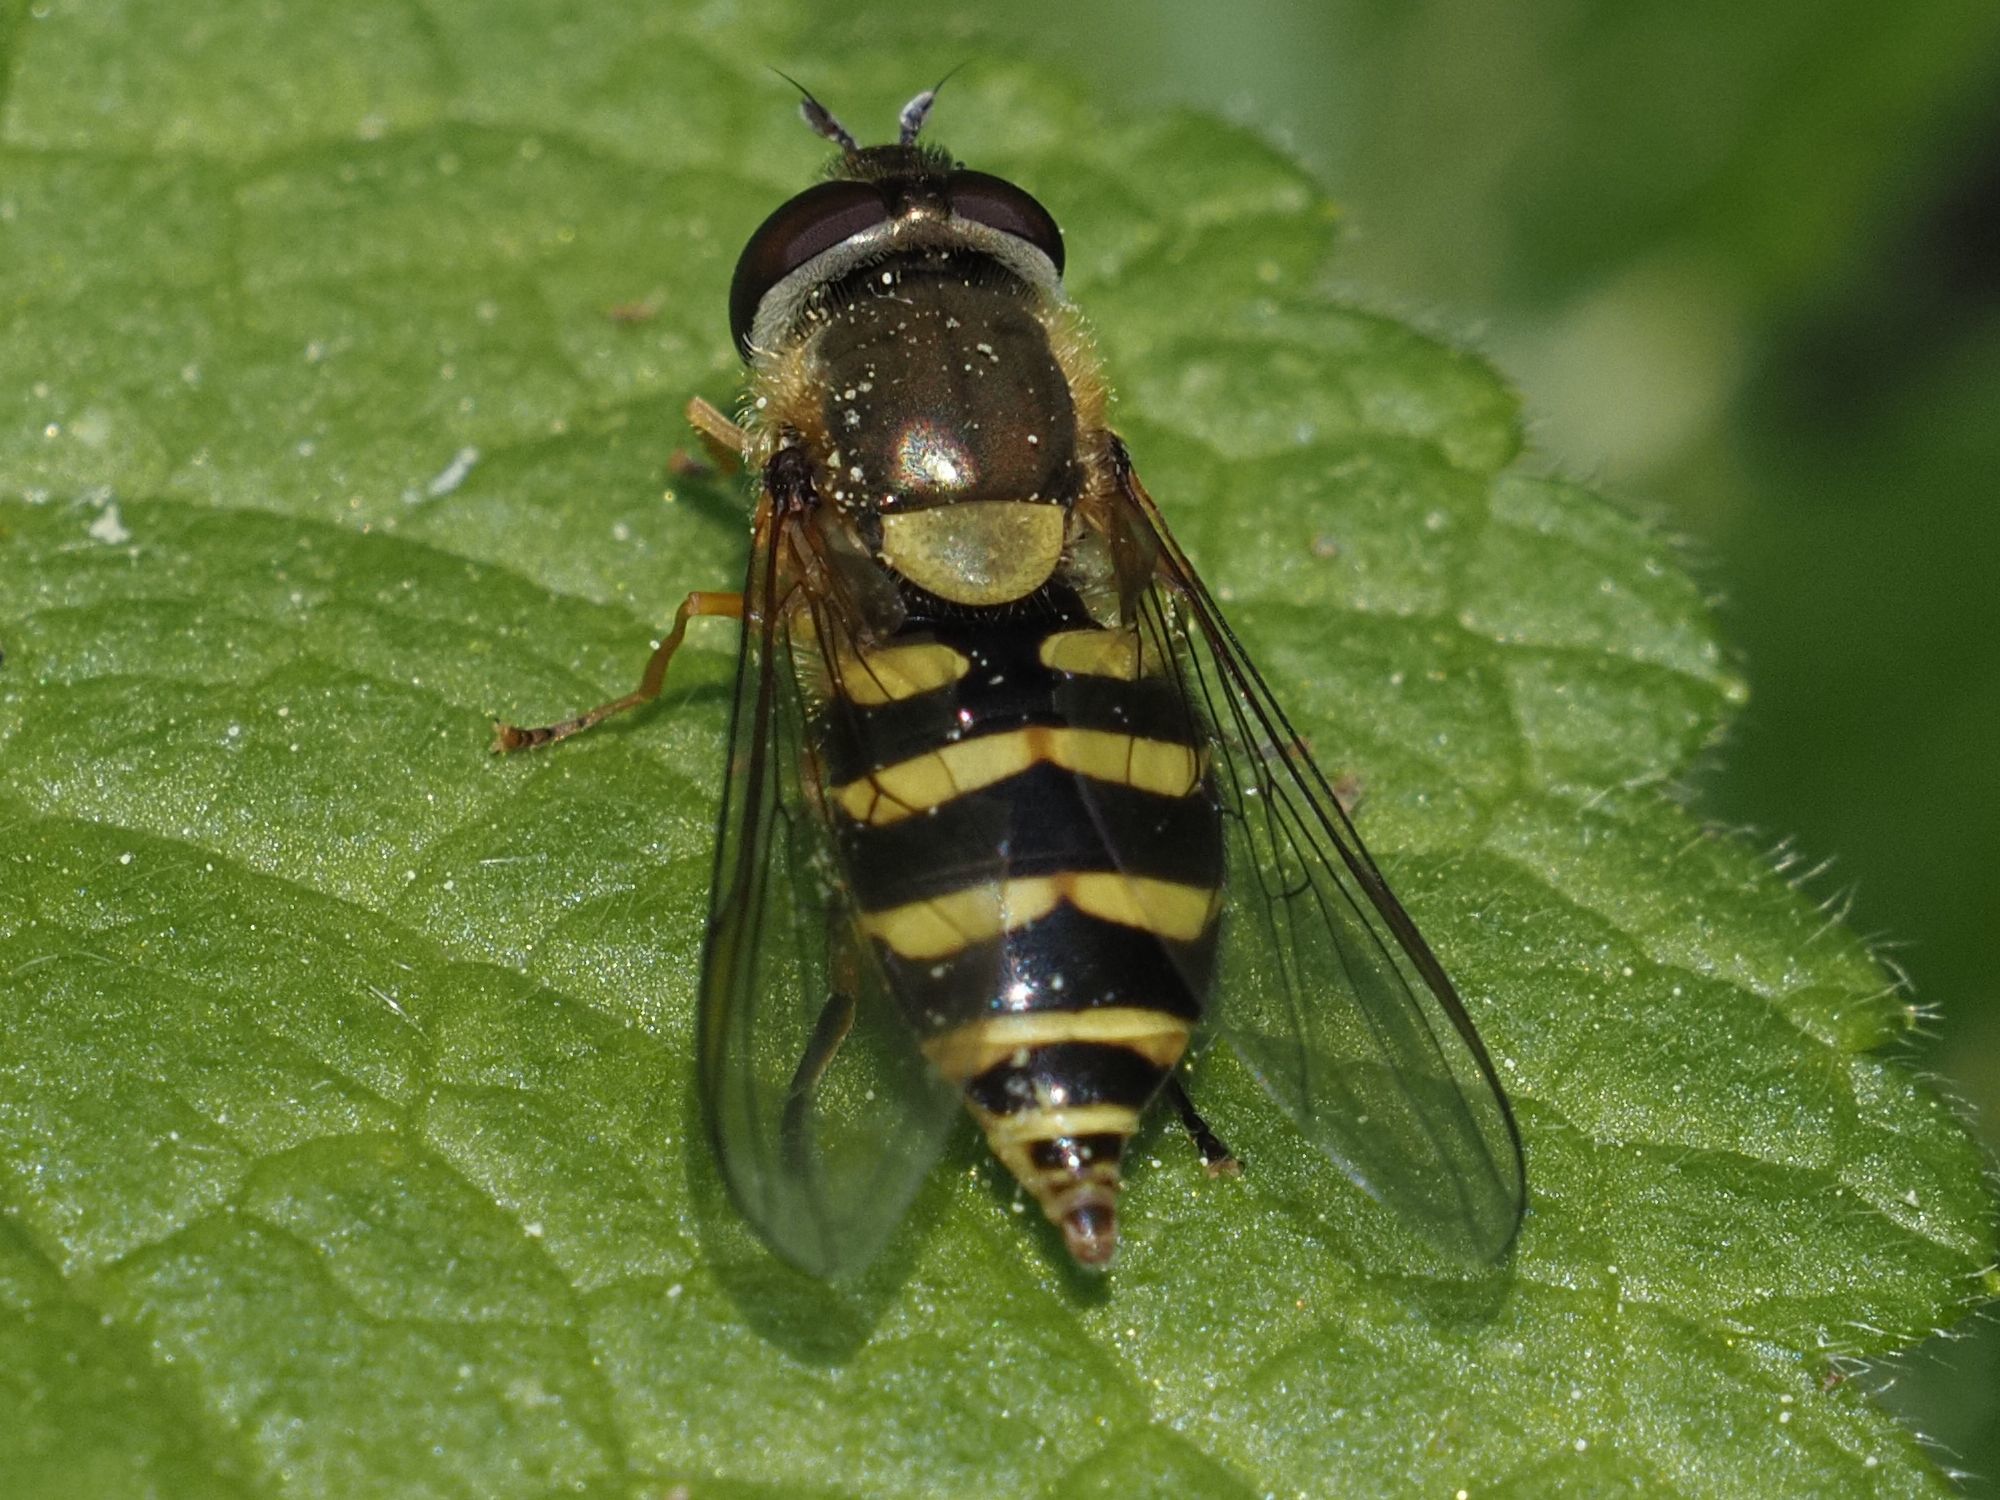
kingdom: Animalia
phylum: Arthropoda
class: Insecta
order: Diptera
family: Syrphidae
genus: Syrphus
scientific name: Syrphus
